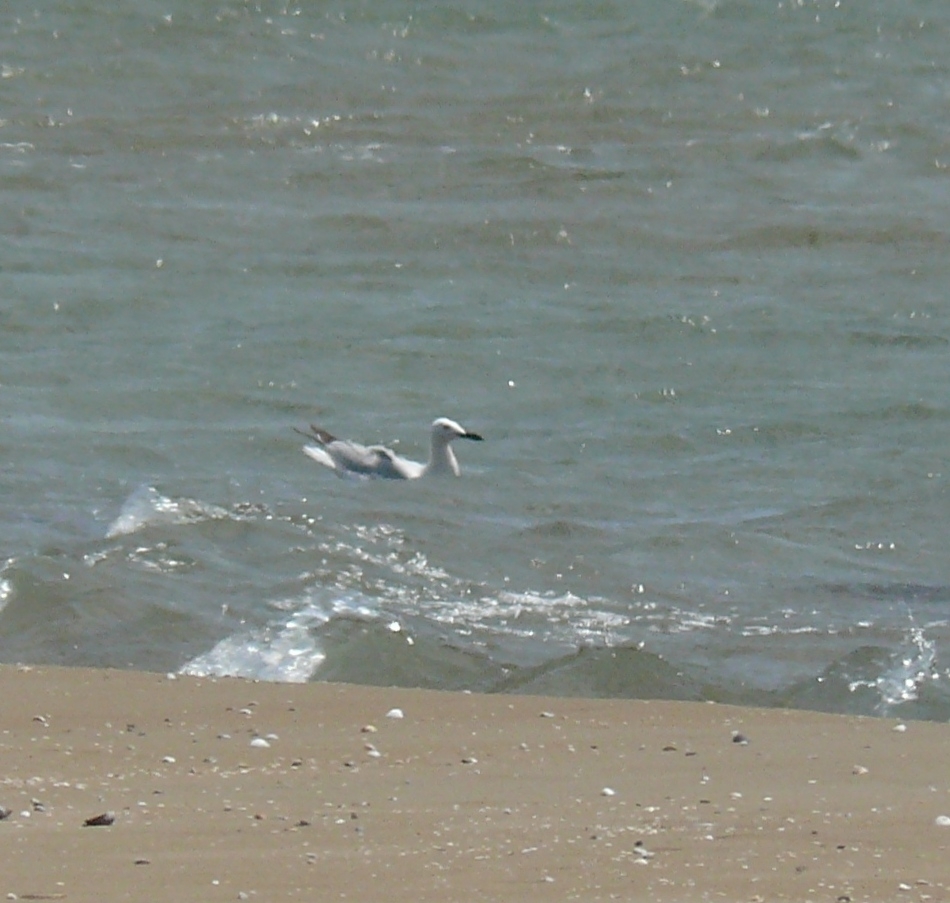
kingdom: Animalia
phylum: Chordata
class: Aves
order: Charadriiformes
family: Laridae
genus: Chroicocephalus
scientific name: Chroicocephalus genei
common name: Slender-billed gull
